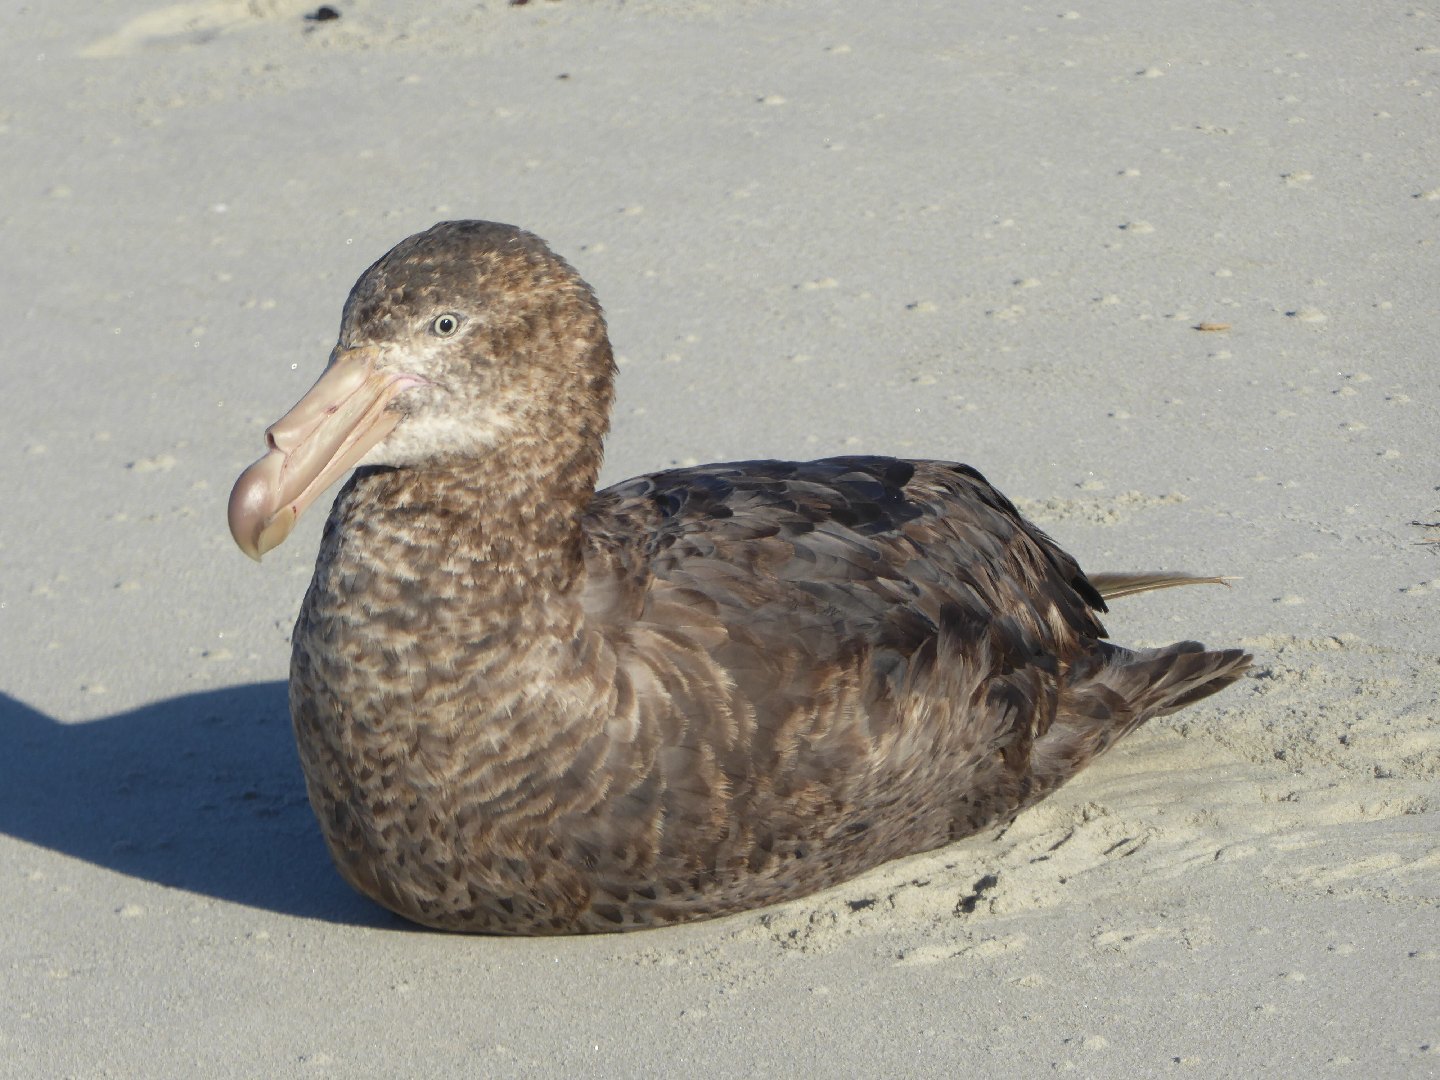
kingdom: Animalia
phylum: Chordata
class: Aves
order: Procellariiformes
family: Procellariidae
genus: Macronectes
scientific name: Macronectes halli
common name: Northern giant petrel
